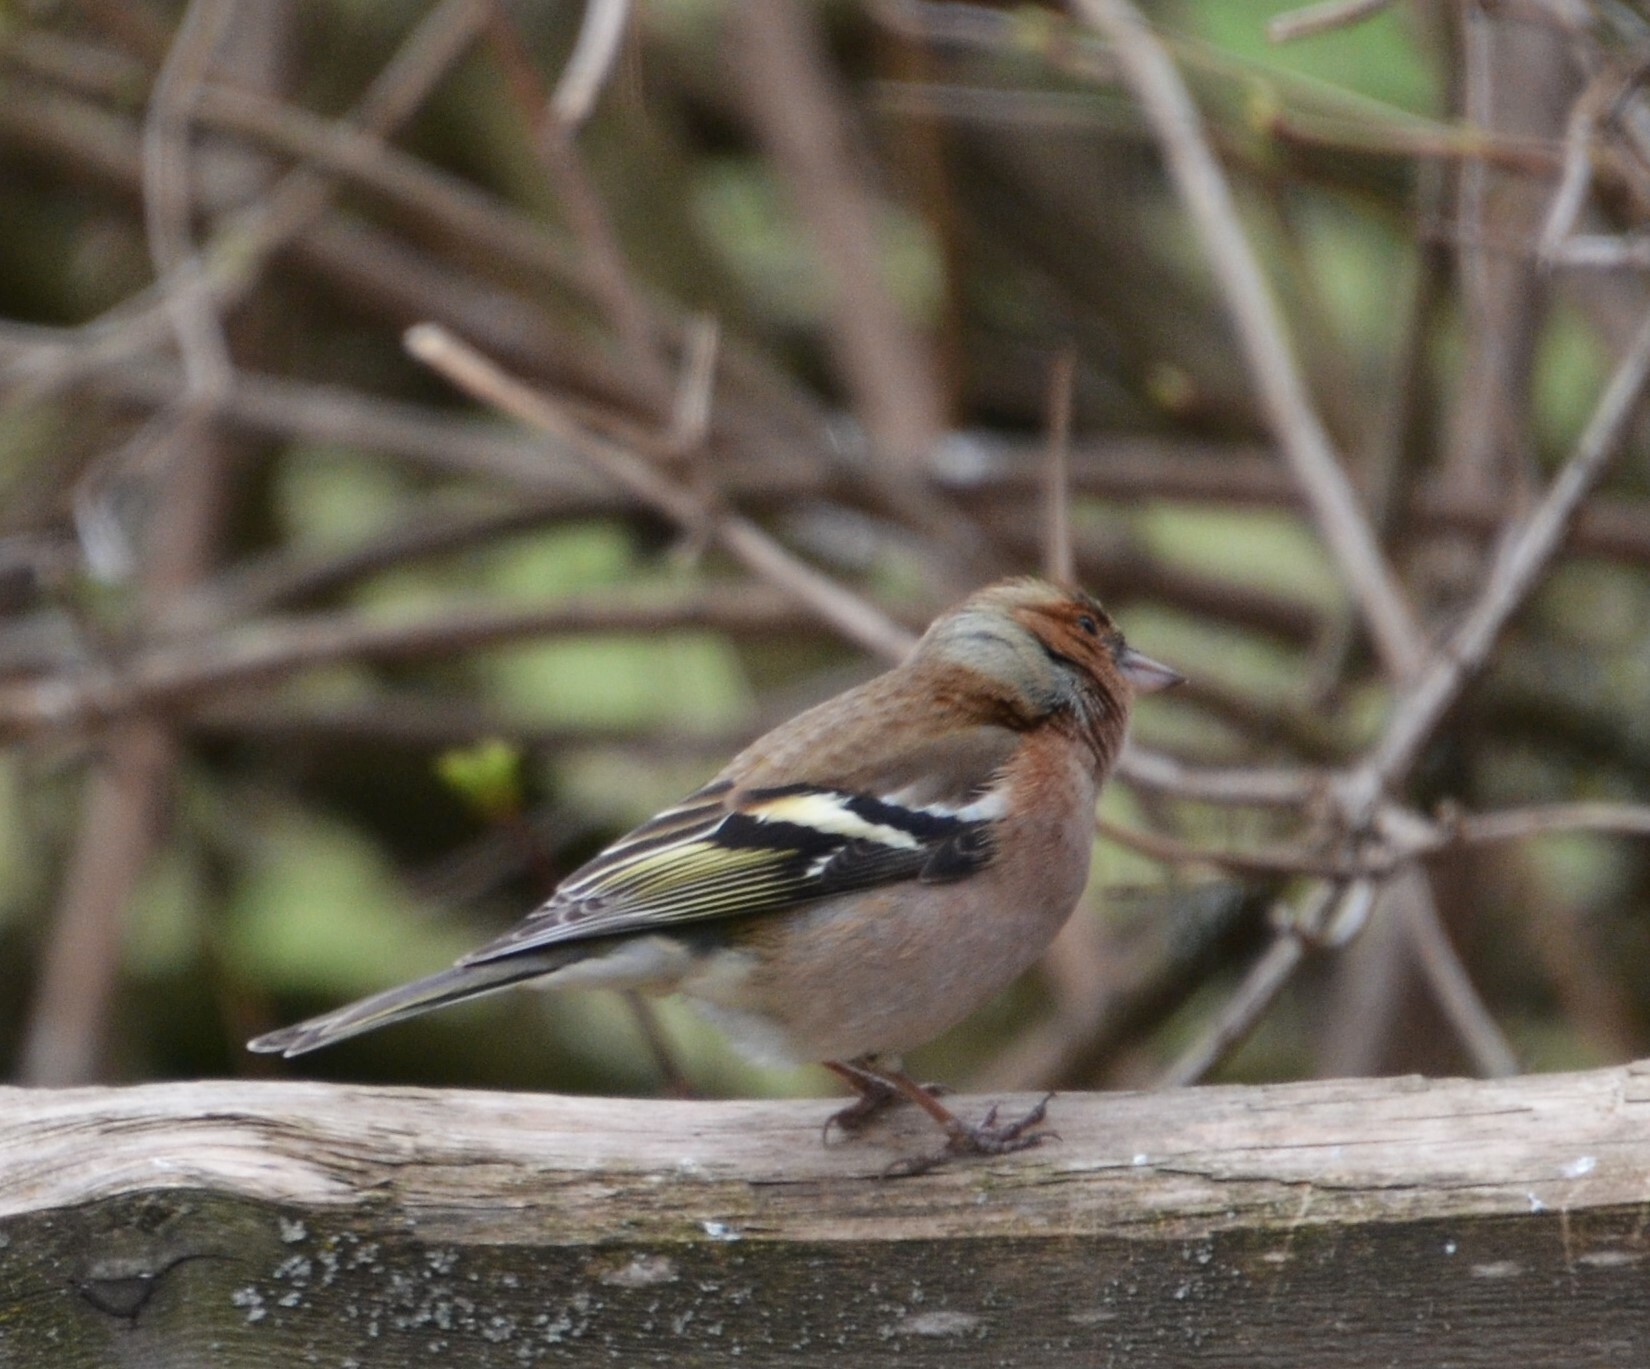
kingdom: Animalia
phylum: Chordata
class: Aves
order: Passeriformes
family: Fringillidae
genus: Fringilla
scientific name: Fringilla coelebs
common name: Common chaffinch
